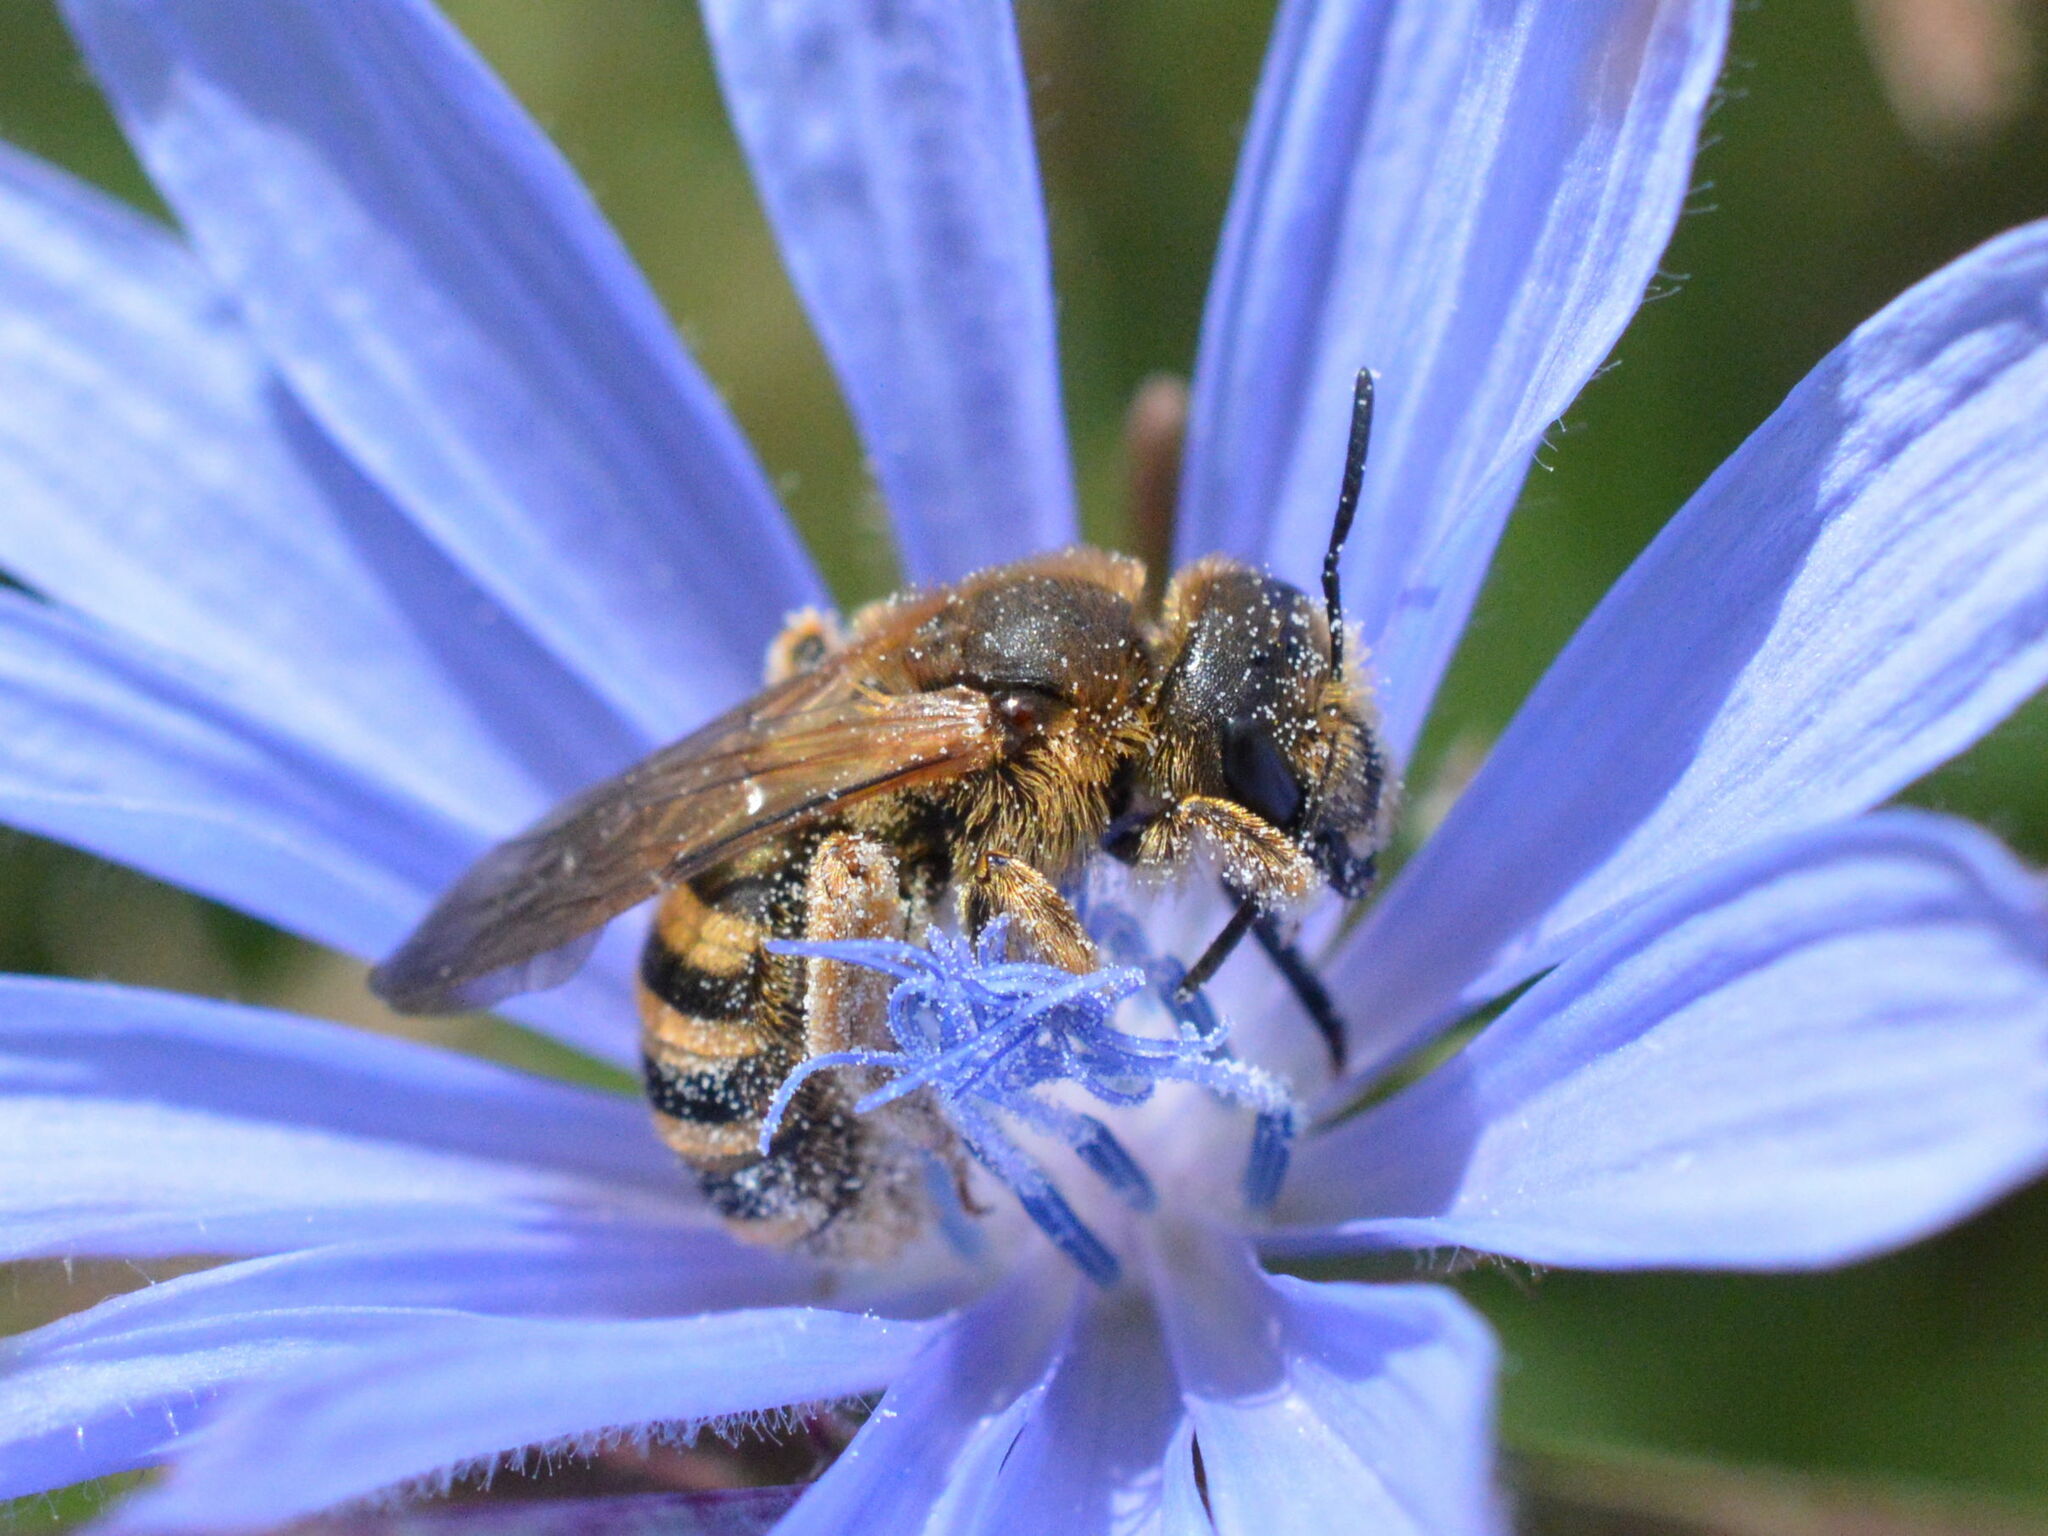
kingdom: Animalia
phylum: Arthropoda
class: Insecta
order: Hymenoptera
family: Halictidae
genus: Halictus
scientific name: Halictus scabiosae
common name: Great banded furrow bee
